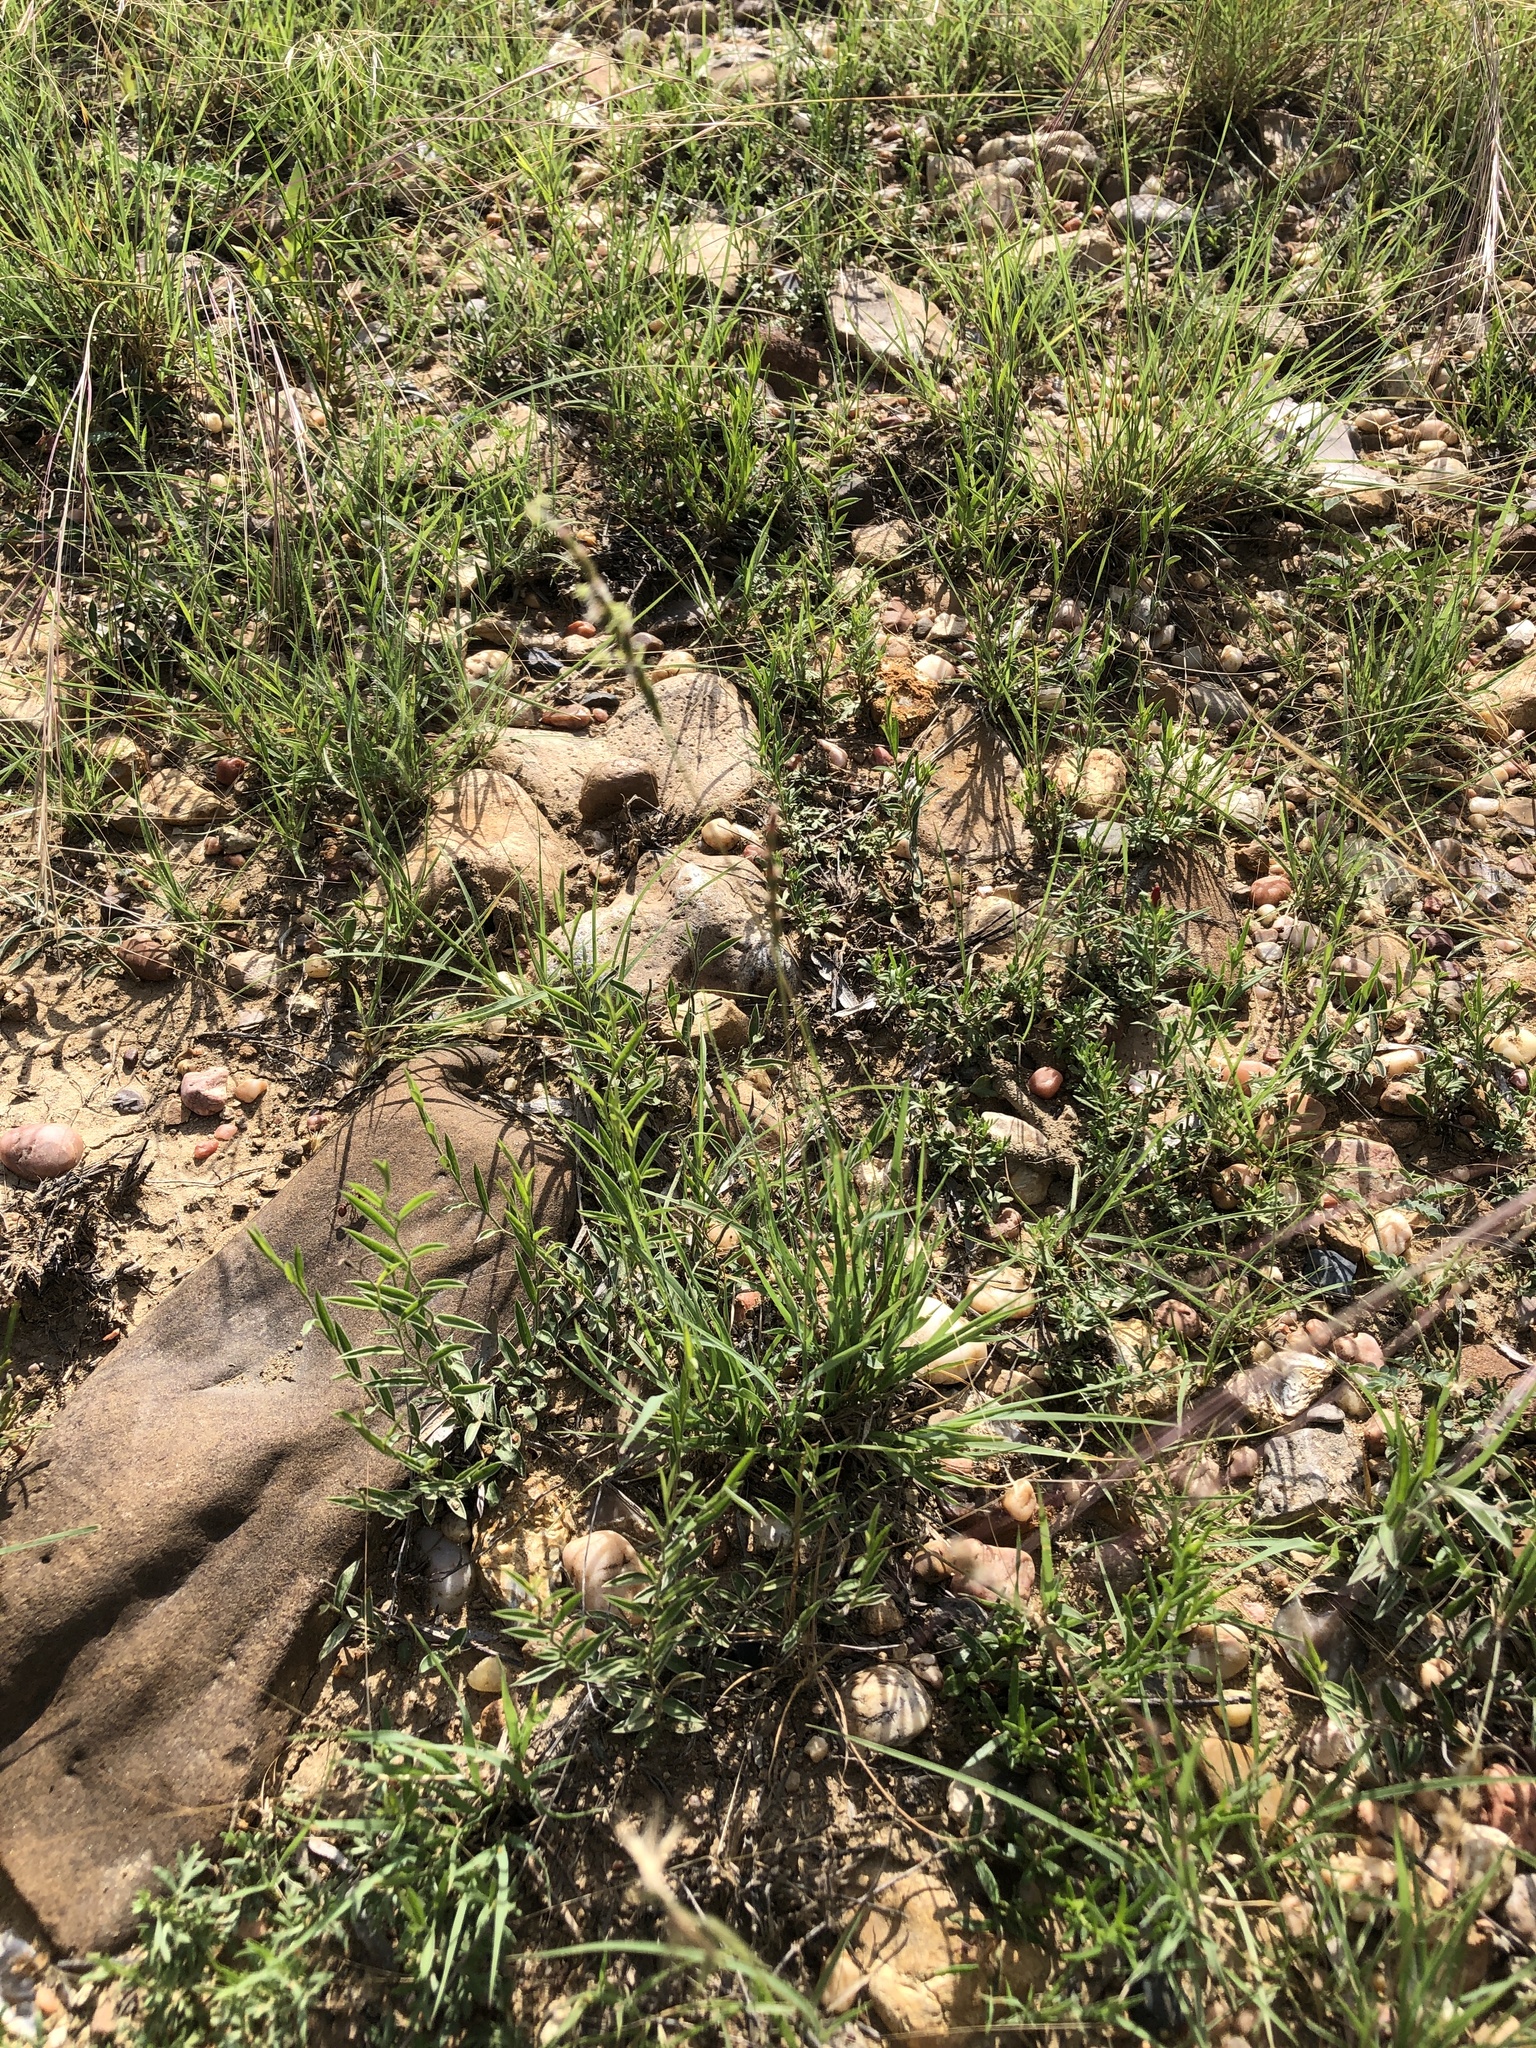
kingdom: Plantae
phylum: Tracheophyta
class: Liliopsida
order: Poales
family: Poaceae
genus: Hilaria
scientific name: Hilaria belangeri
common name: Curly-mesquite
